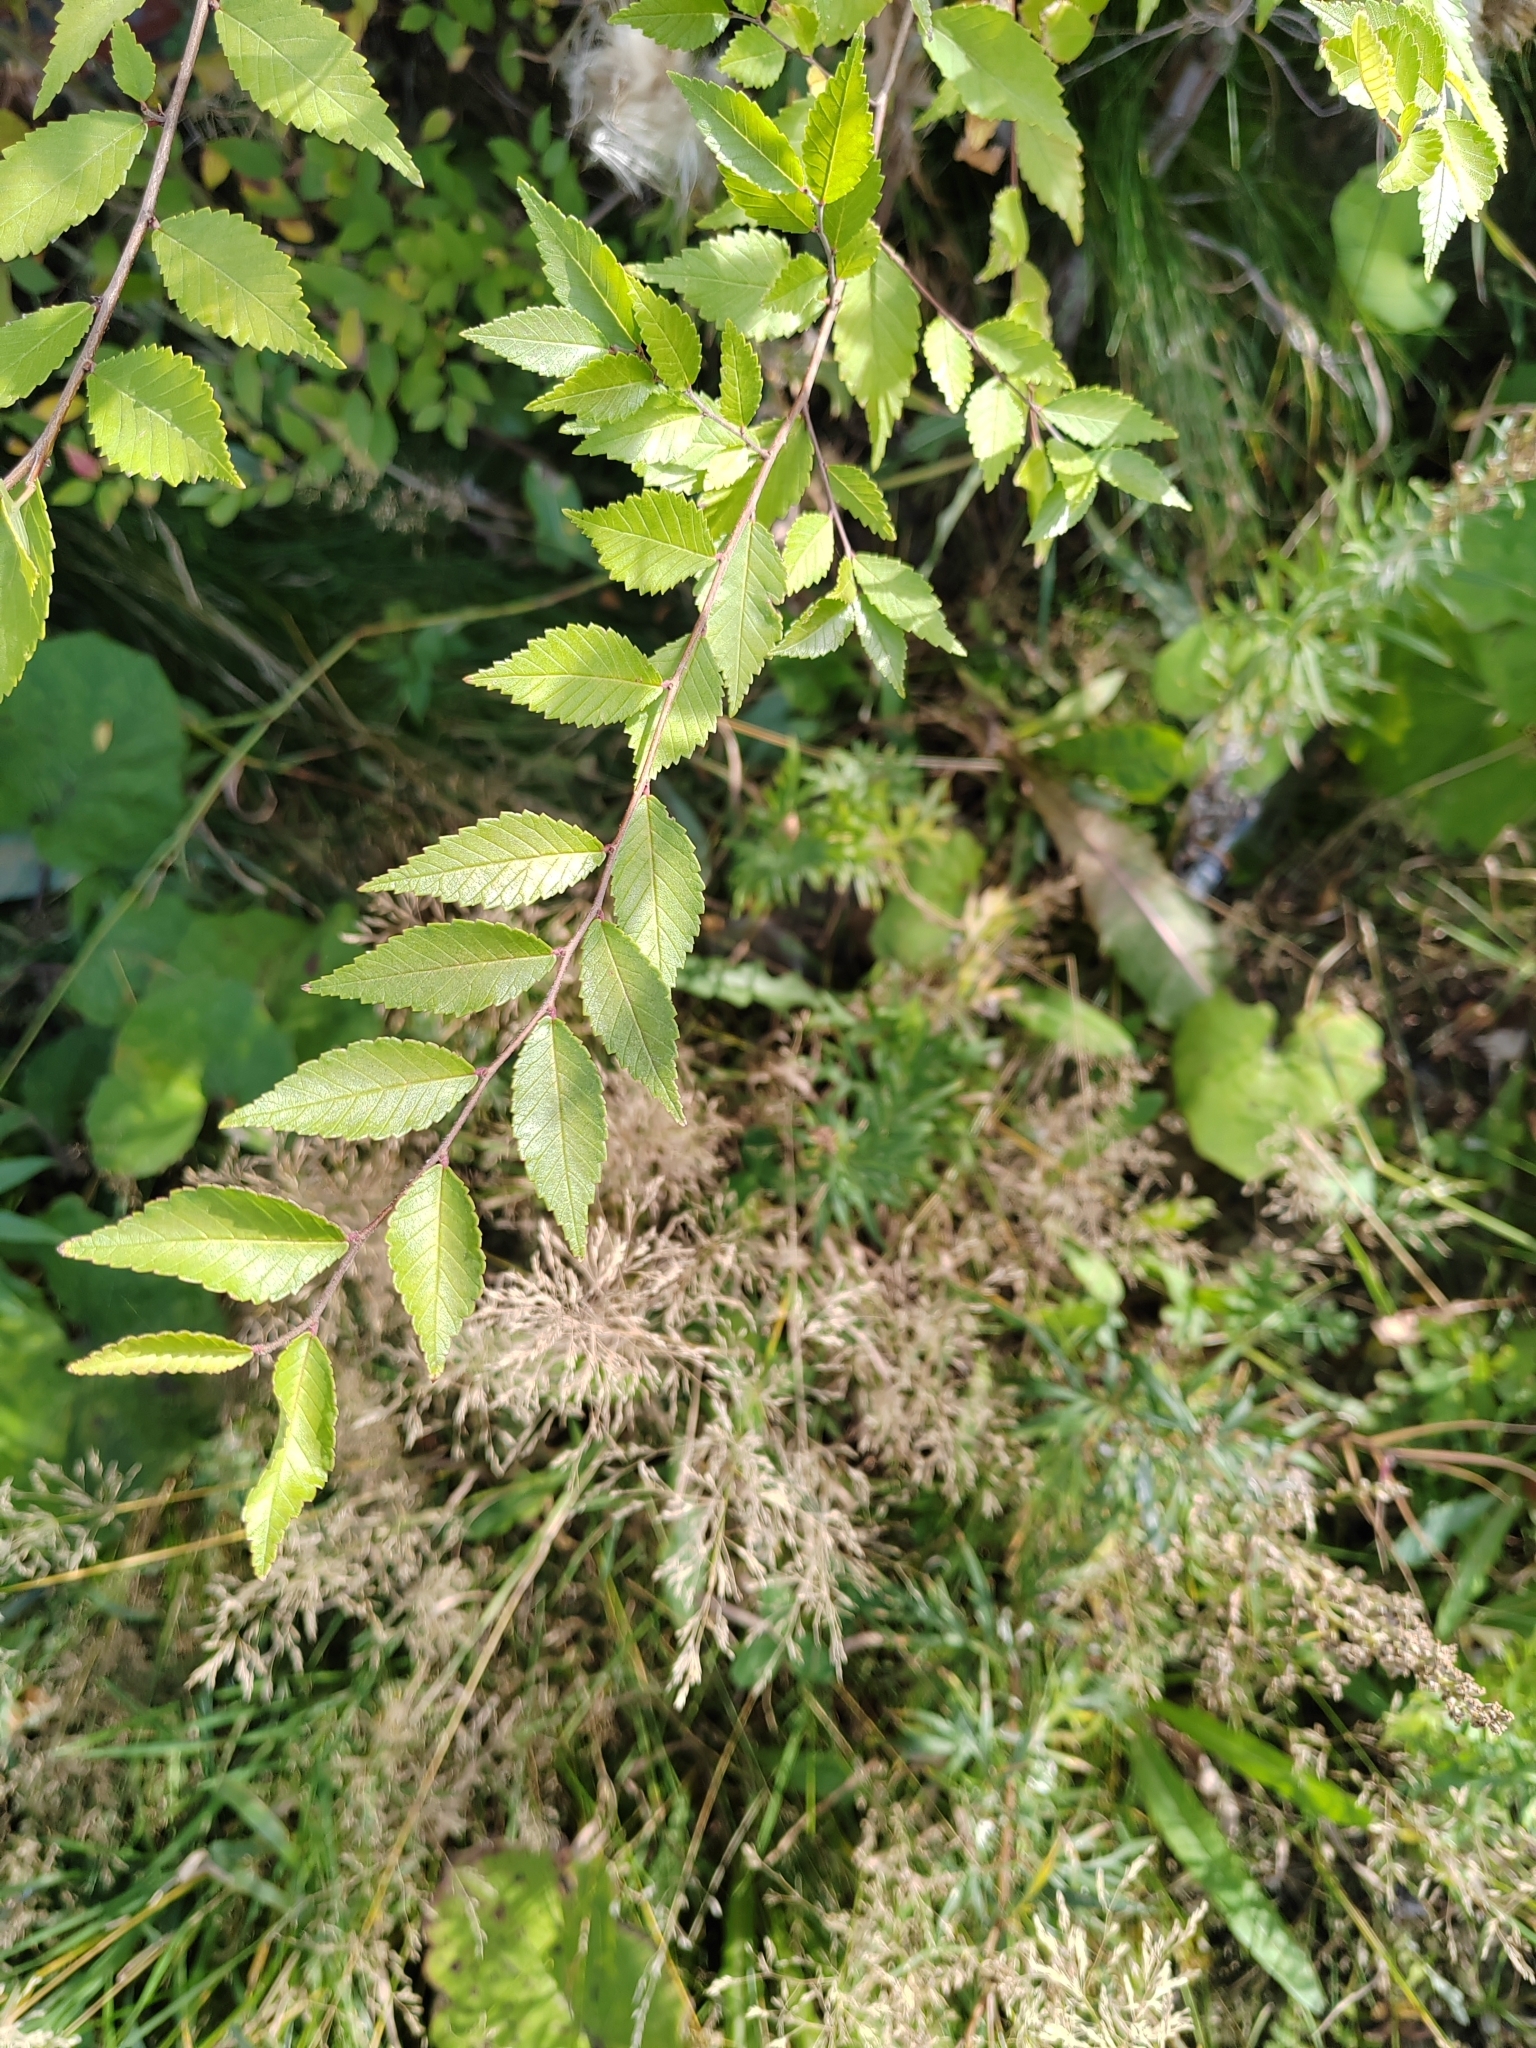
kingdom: Plantae
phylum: Tracheophyta
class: Magnoliopsida
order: Rosales
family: Ulmaceae
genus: Ulmus
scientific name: Ulmus pumila
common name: Siberian elm
